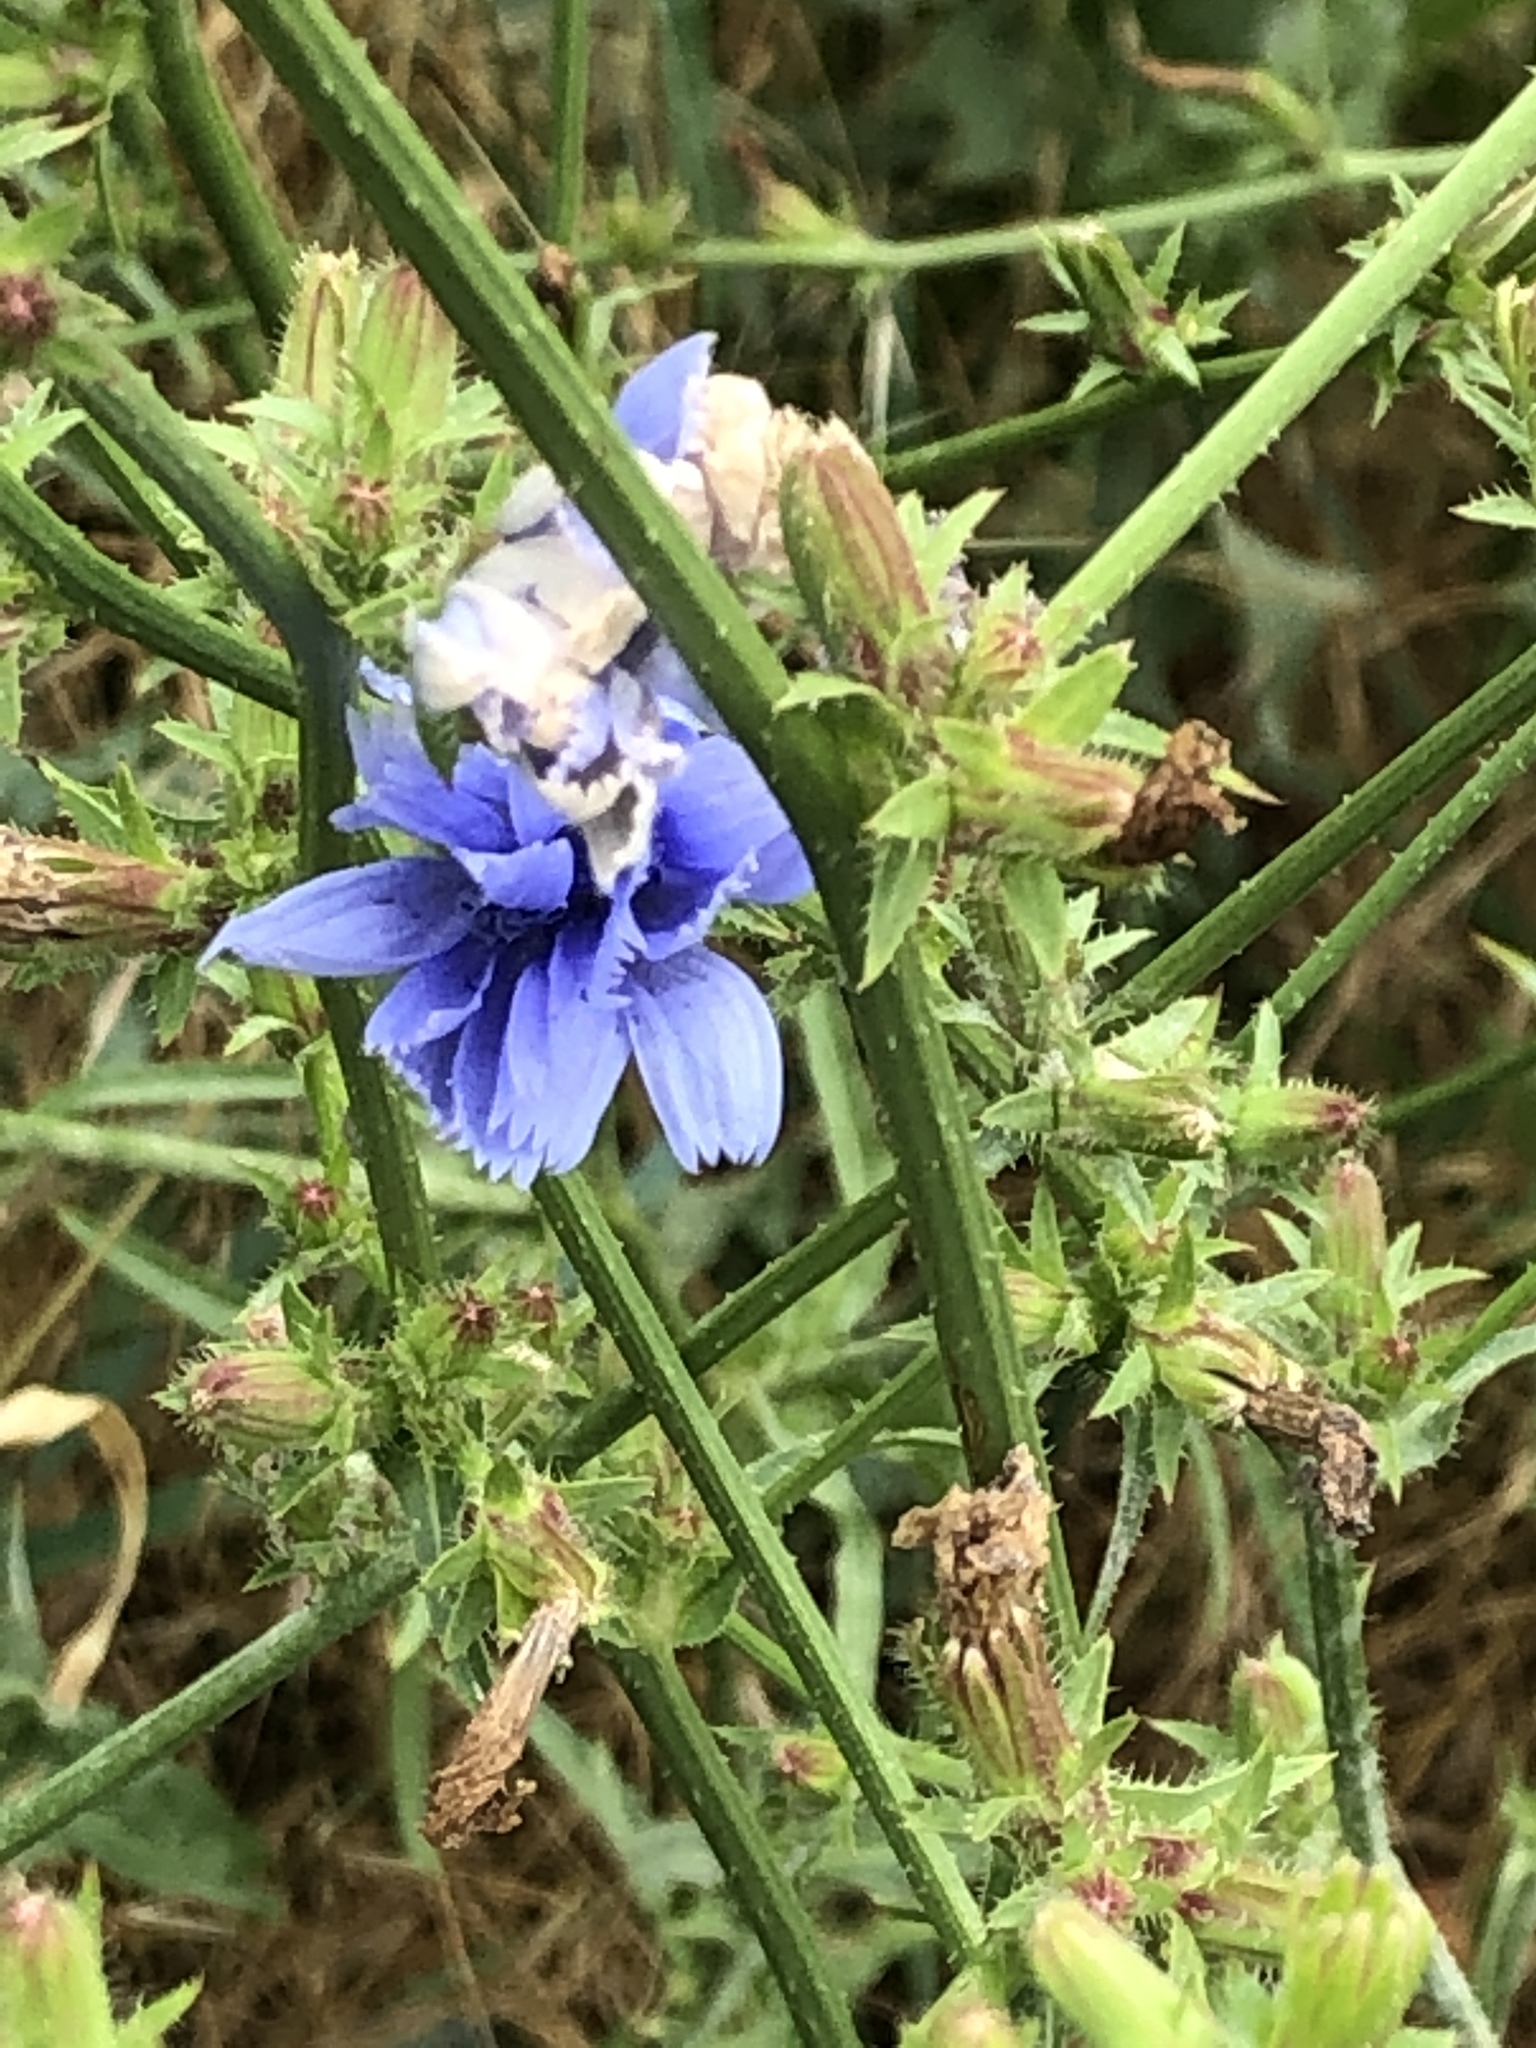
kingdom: Plantae
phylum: Tracheophyta
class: Magnoliopsida
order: Asterales
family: Asteraceae
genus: Cichorium
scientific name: Cichorium intybus
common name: Chicory
